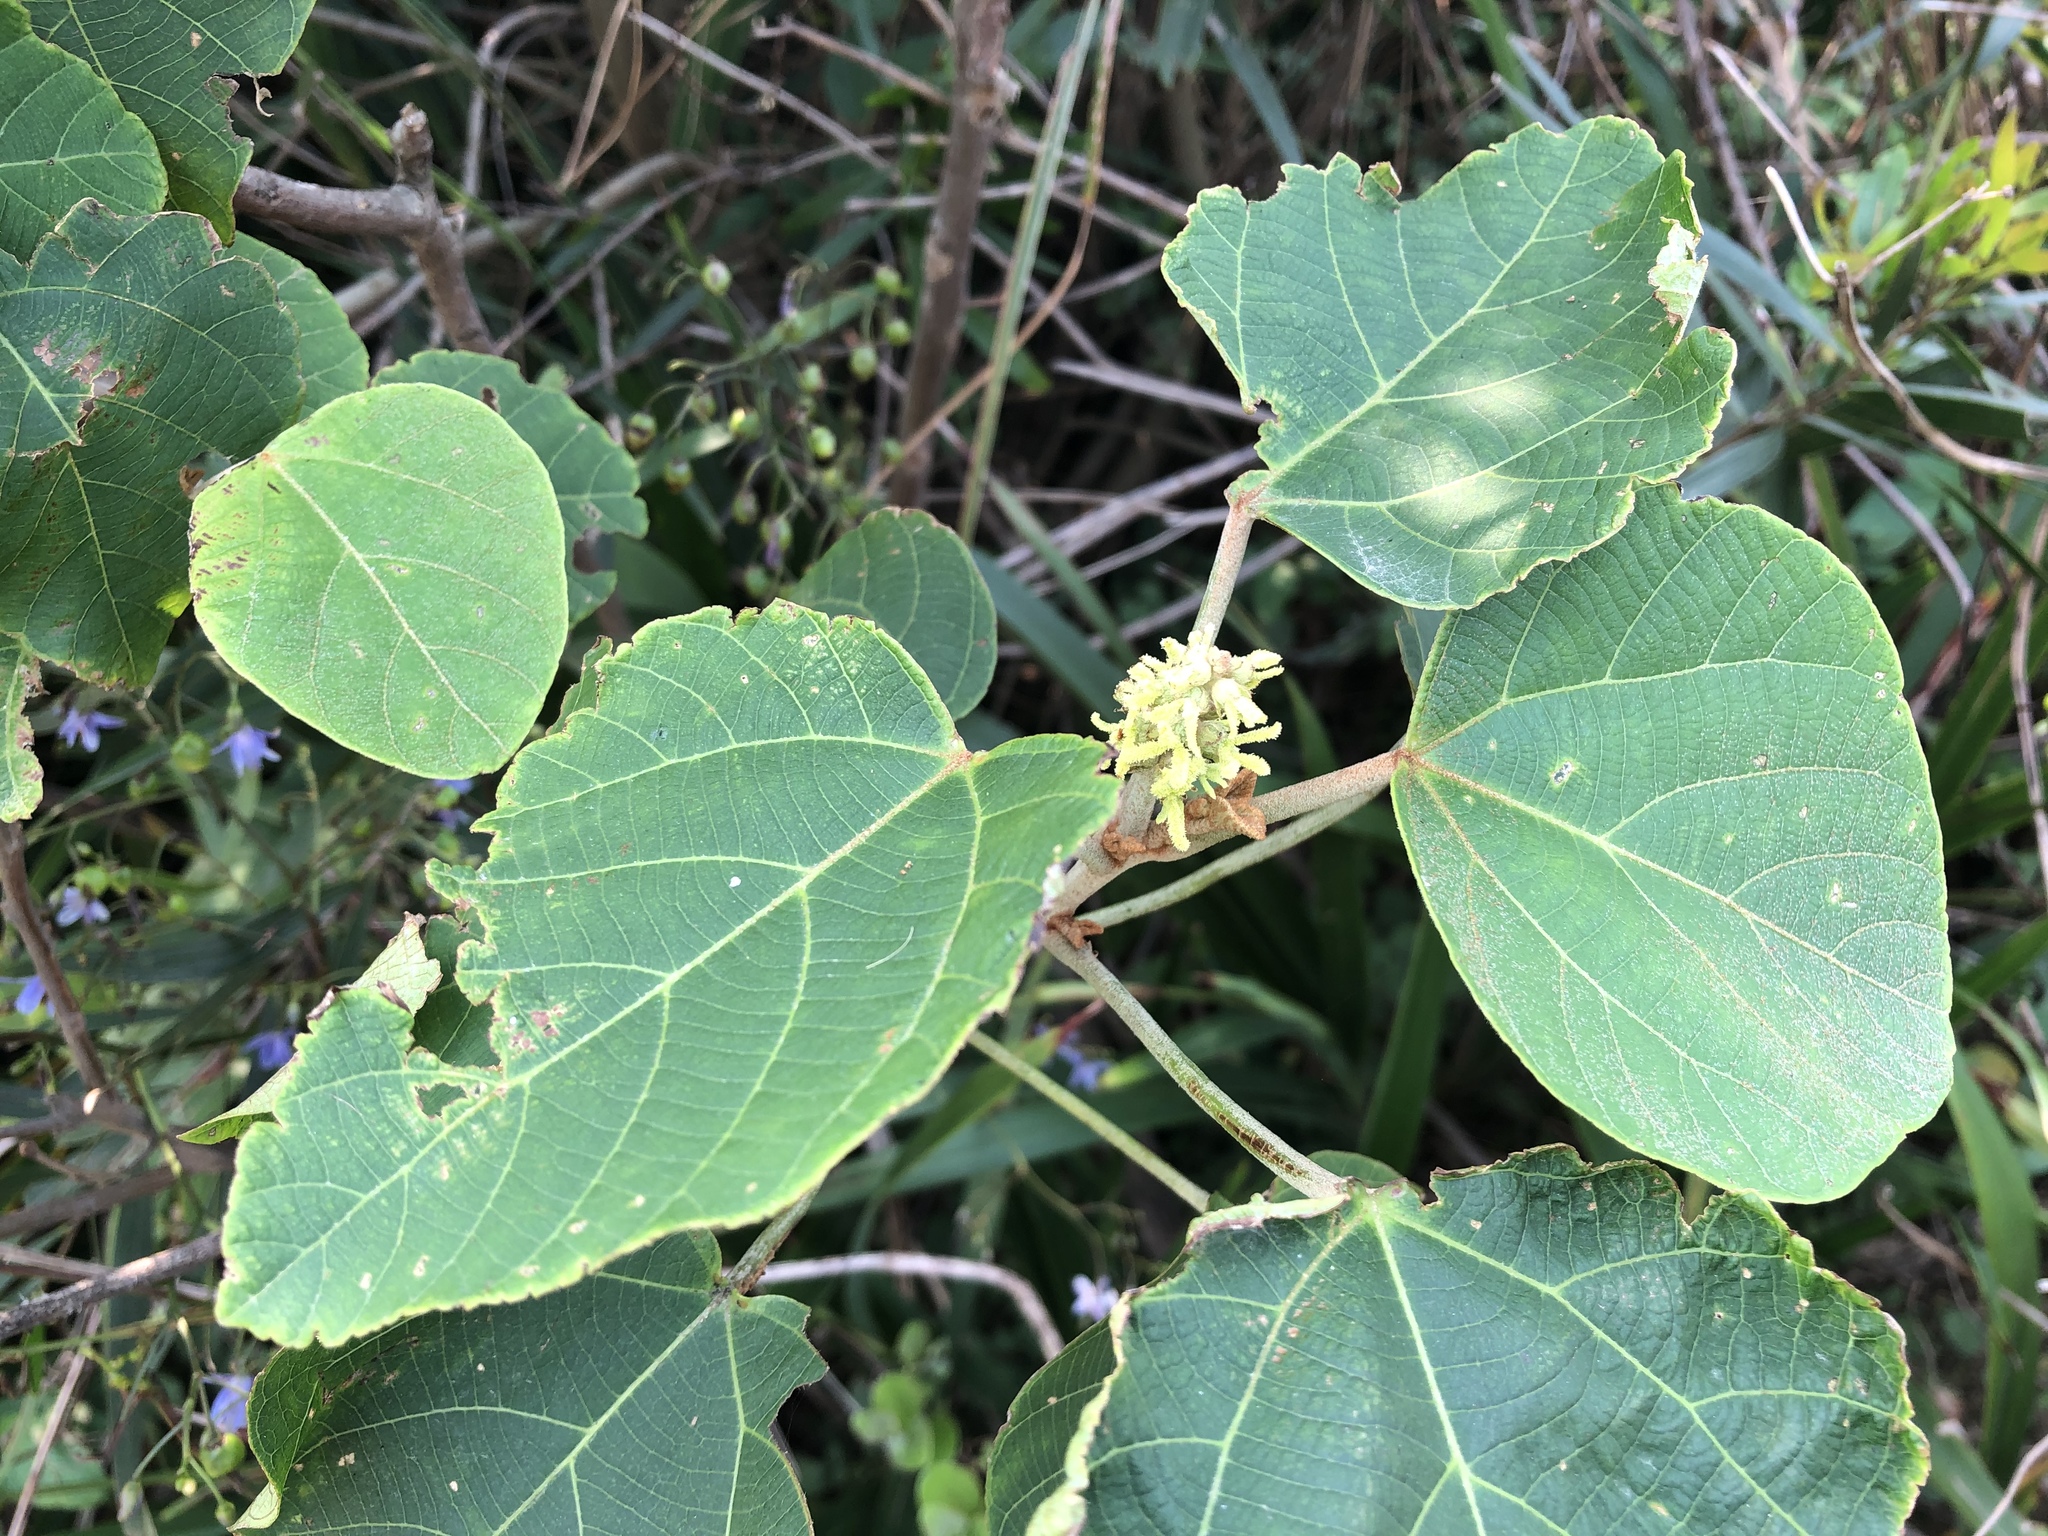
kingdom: Plantae
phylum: Tracheophyta
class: Magnoliopsida
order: Malpighiales
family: Euphorbiaceae
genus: Mallotus
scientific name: Mallotus japonicus
